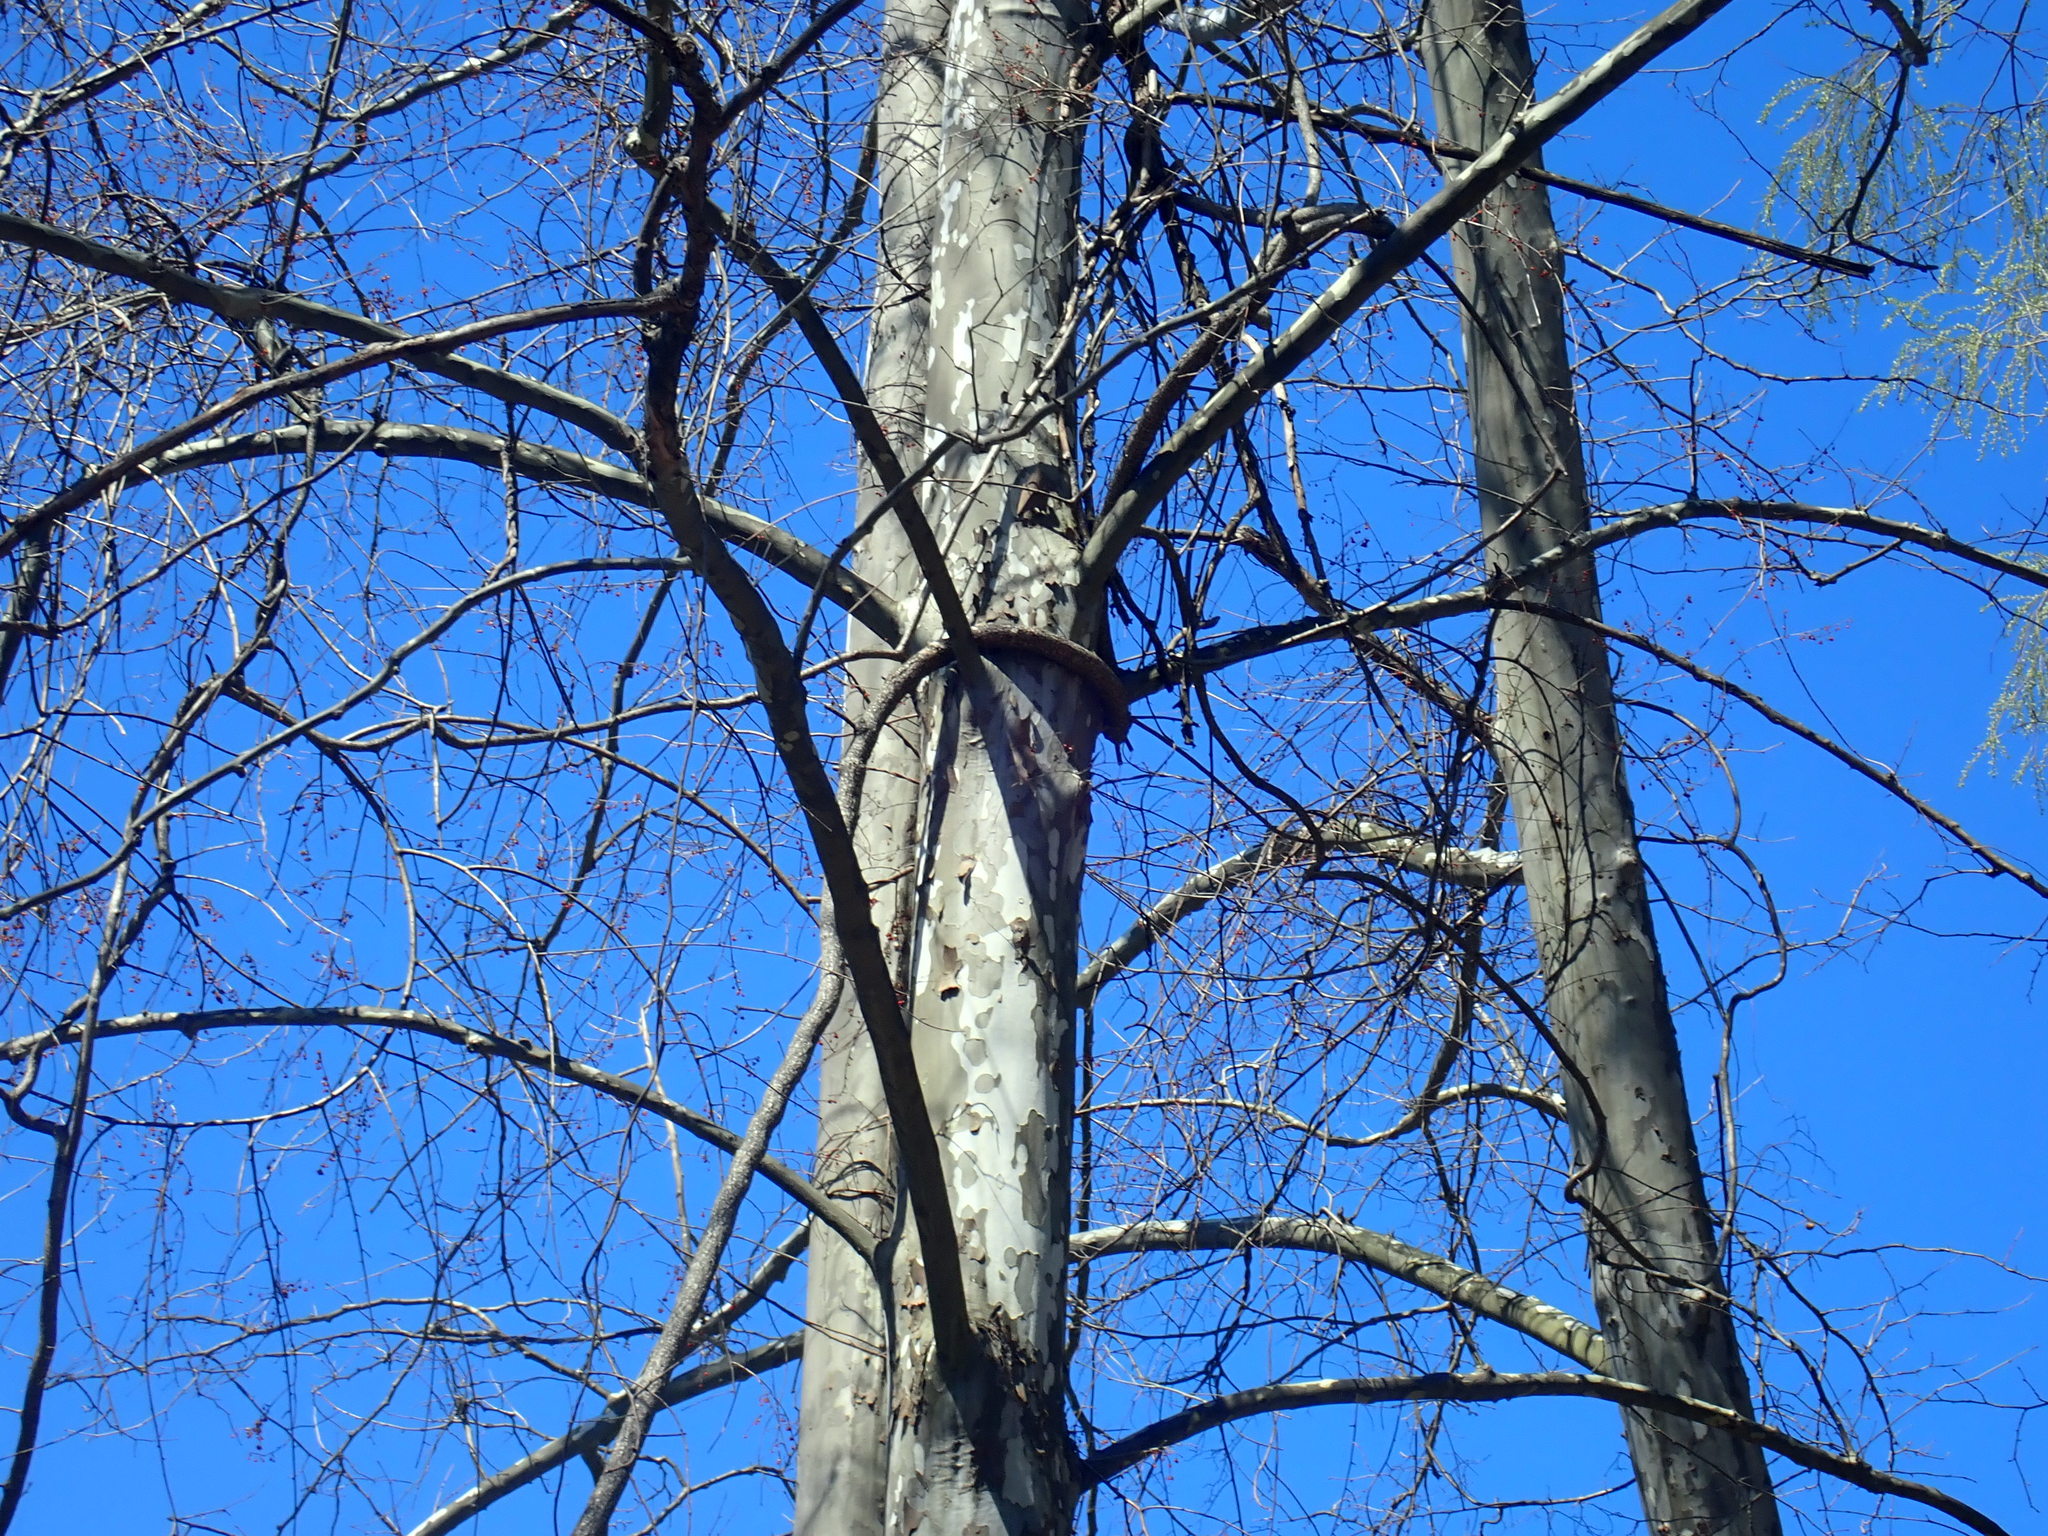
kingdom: Plantae
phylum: Tracheophyta
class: Magnoliopsida
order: Proteales
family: Platanaceae
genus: Platanus
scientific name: Platanus occidentalis
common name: American sycamore
